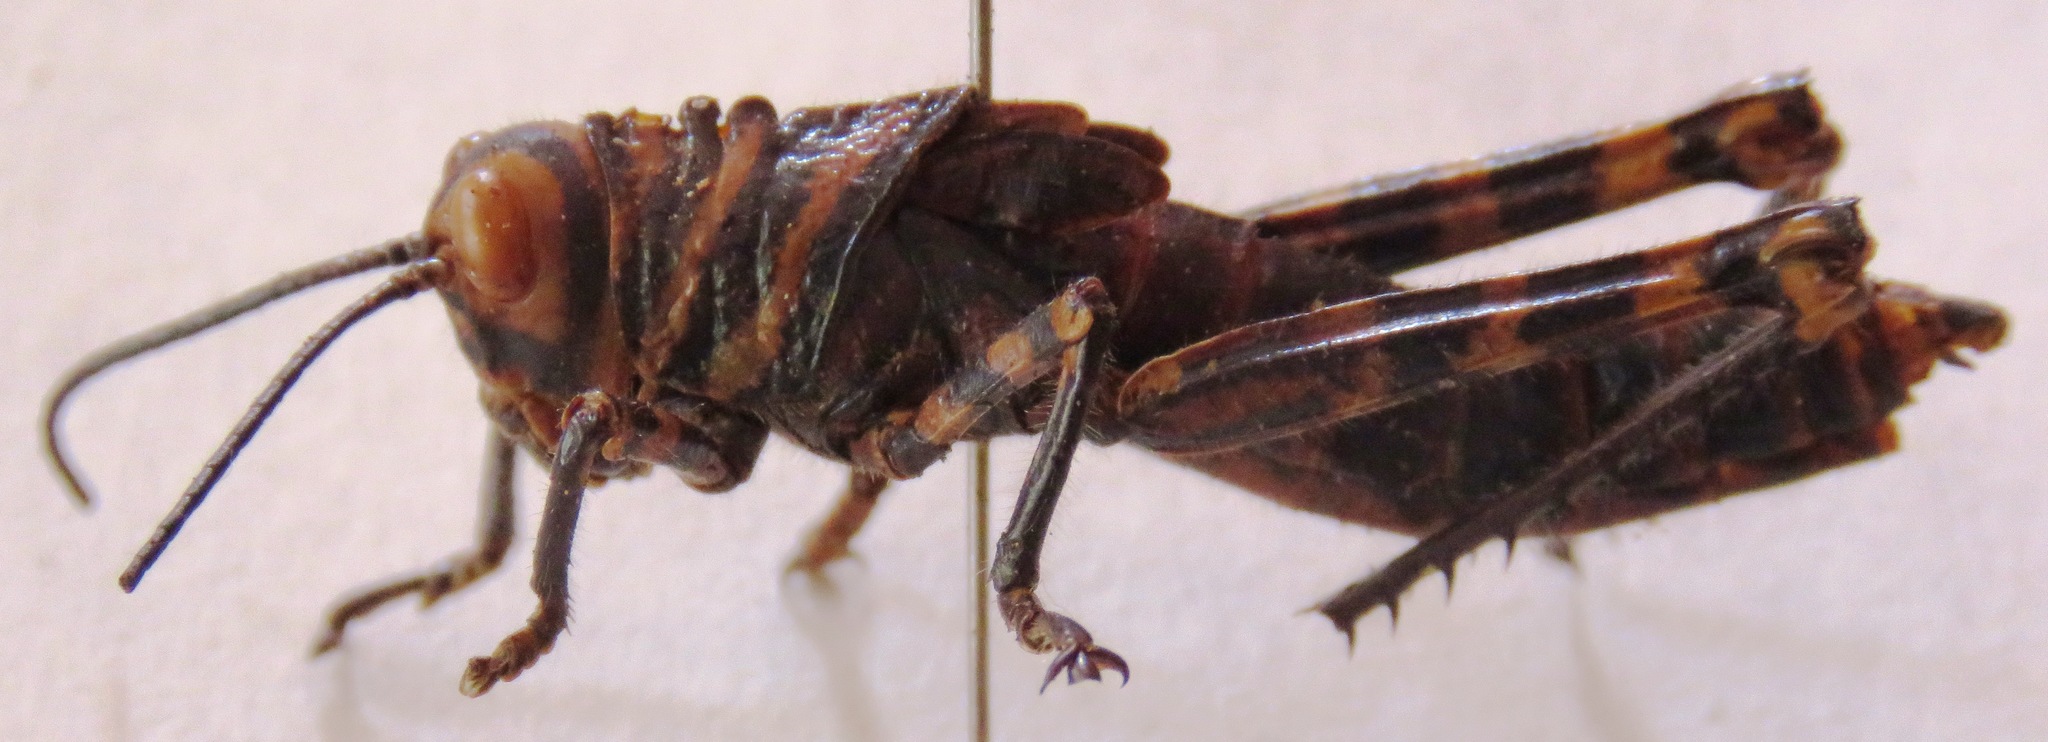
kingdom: Animalia
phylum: Arthropoda
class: Insecta
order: Orthoptera
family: Romaleidae
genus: Tropidacris
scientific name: Tropidacris cristata
